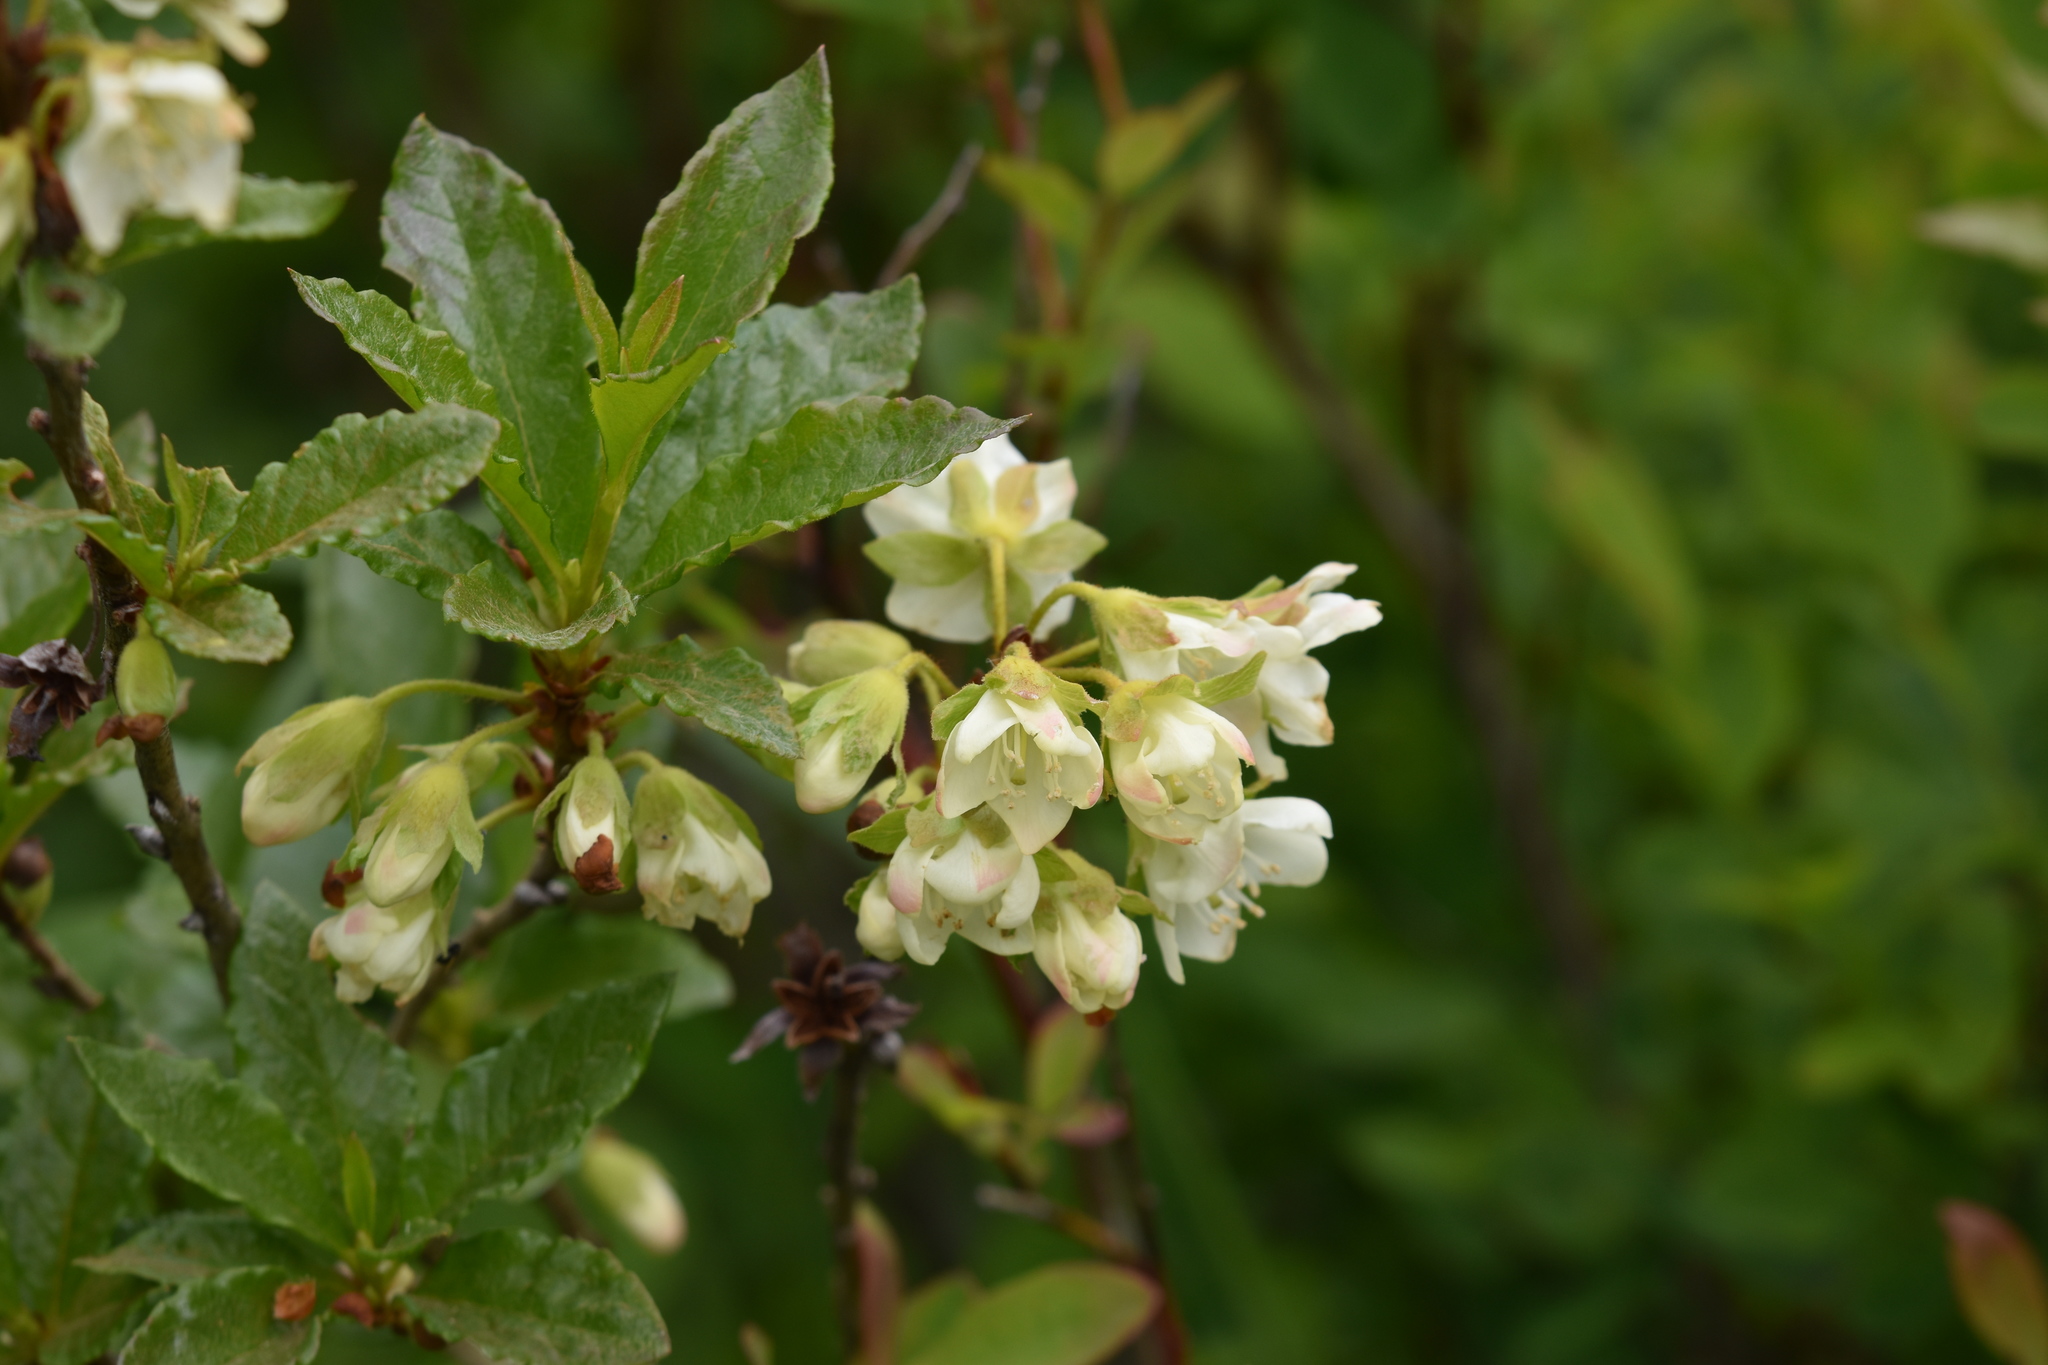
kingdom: Plantae
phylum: Tracheophyta
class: Magnoliopsida
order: Ericales
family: Ericaceae
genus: Rhododendron
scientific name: Rhododendron albiflorum
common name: White rhododendron
